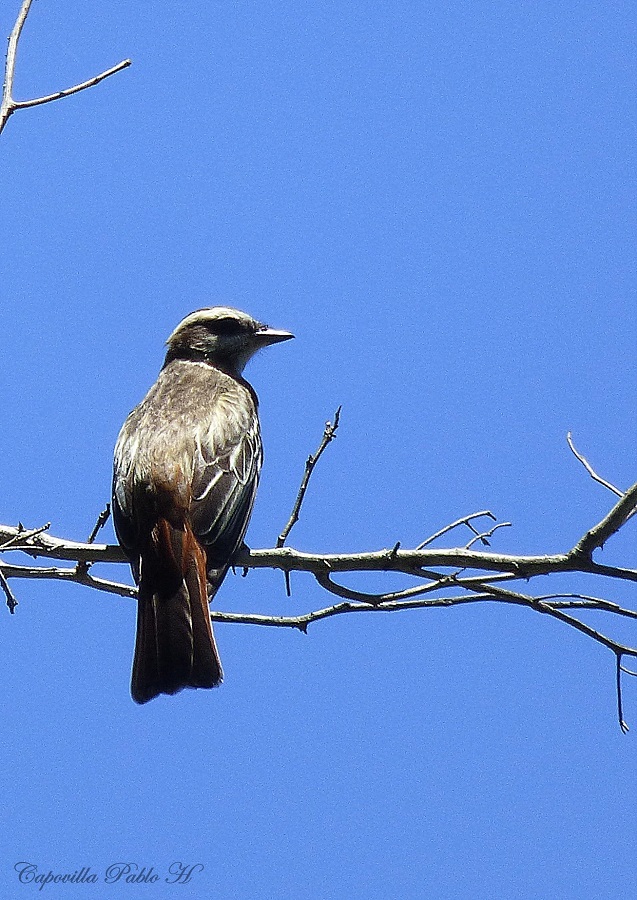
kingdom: Animalia
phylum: Chordata
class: Aves
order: Passeriformes
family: Tyrannidae
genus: Empidonomus
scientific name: Empidonomus varius
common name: Variegated flycatcher
